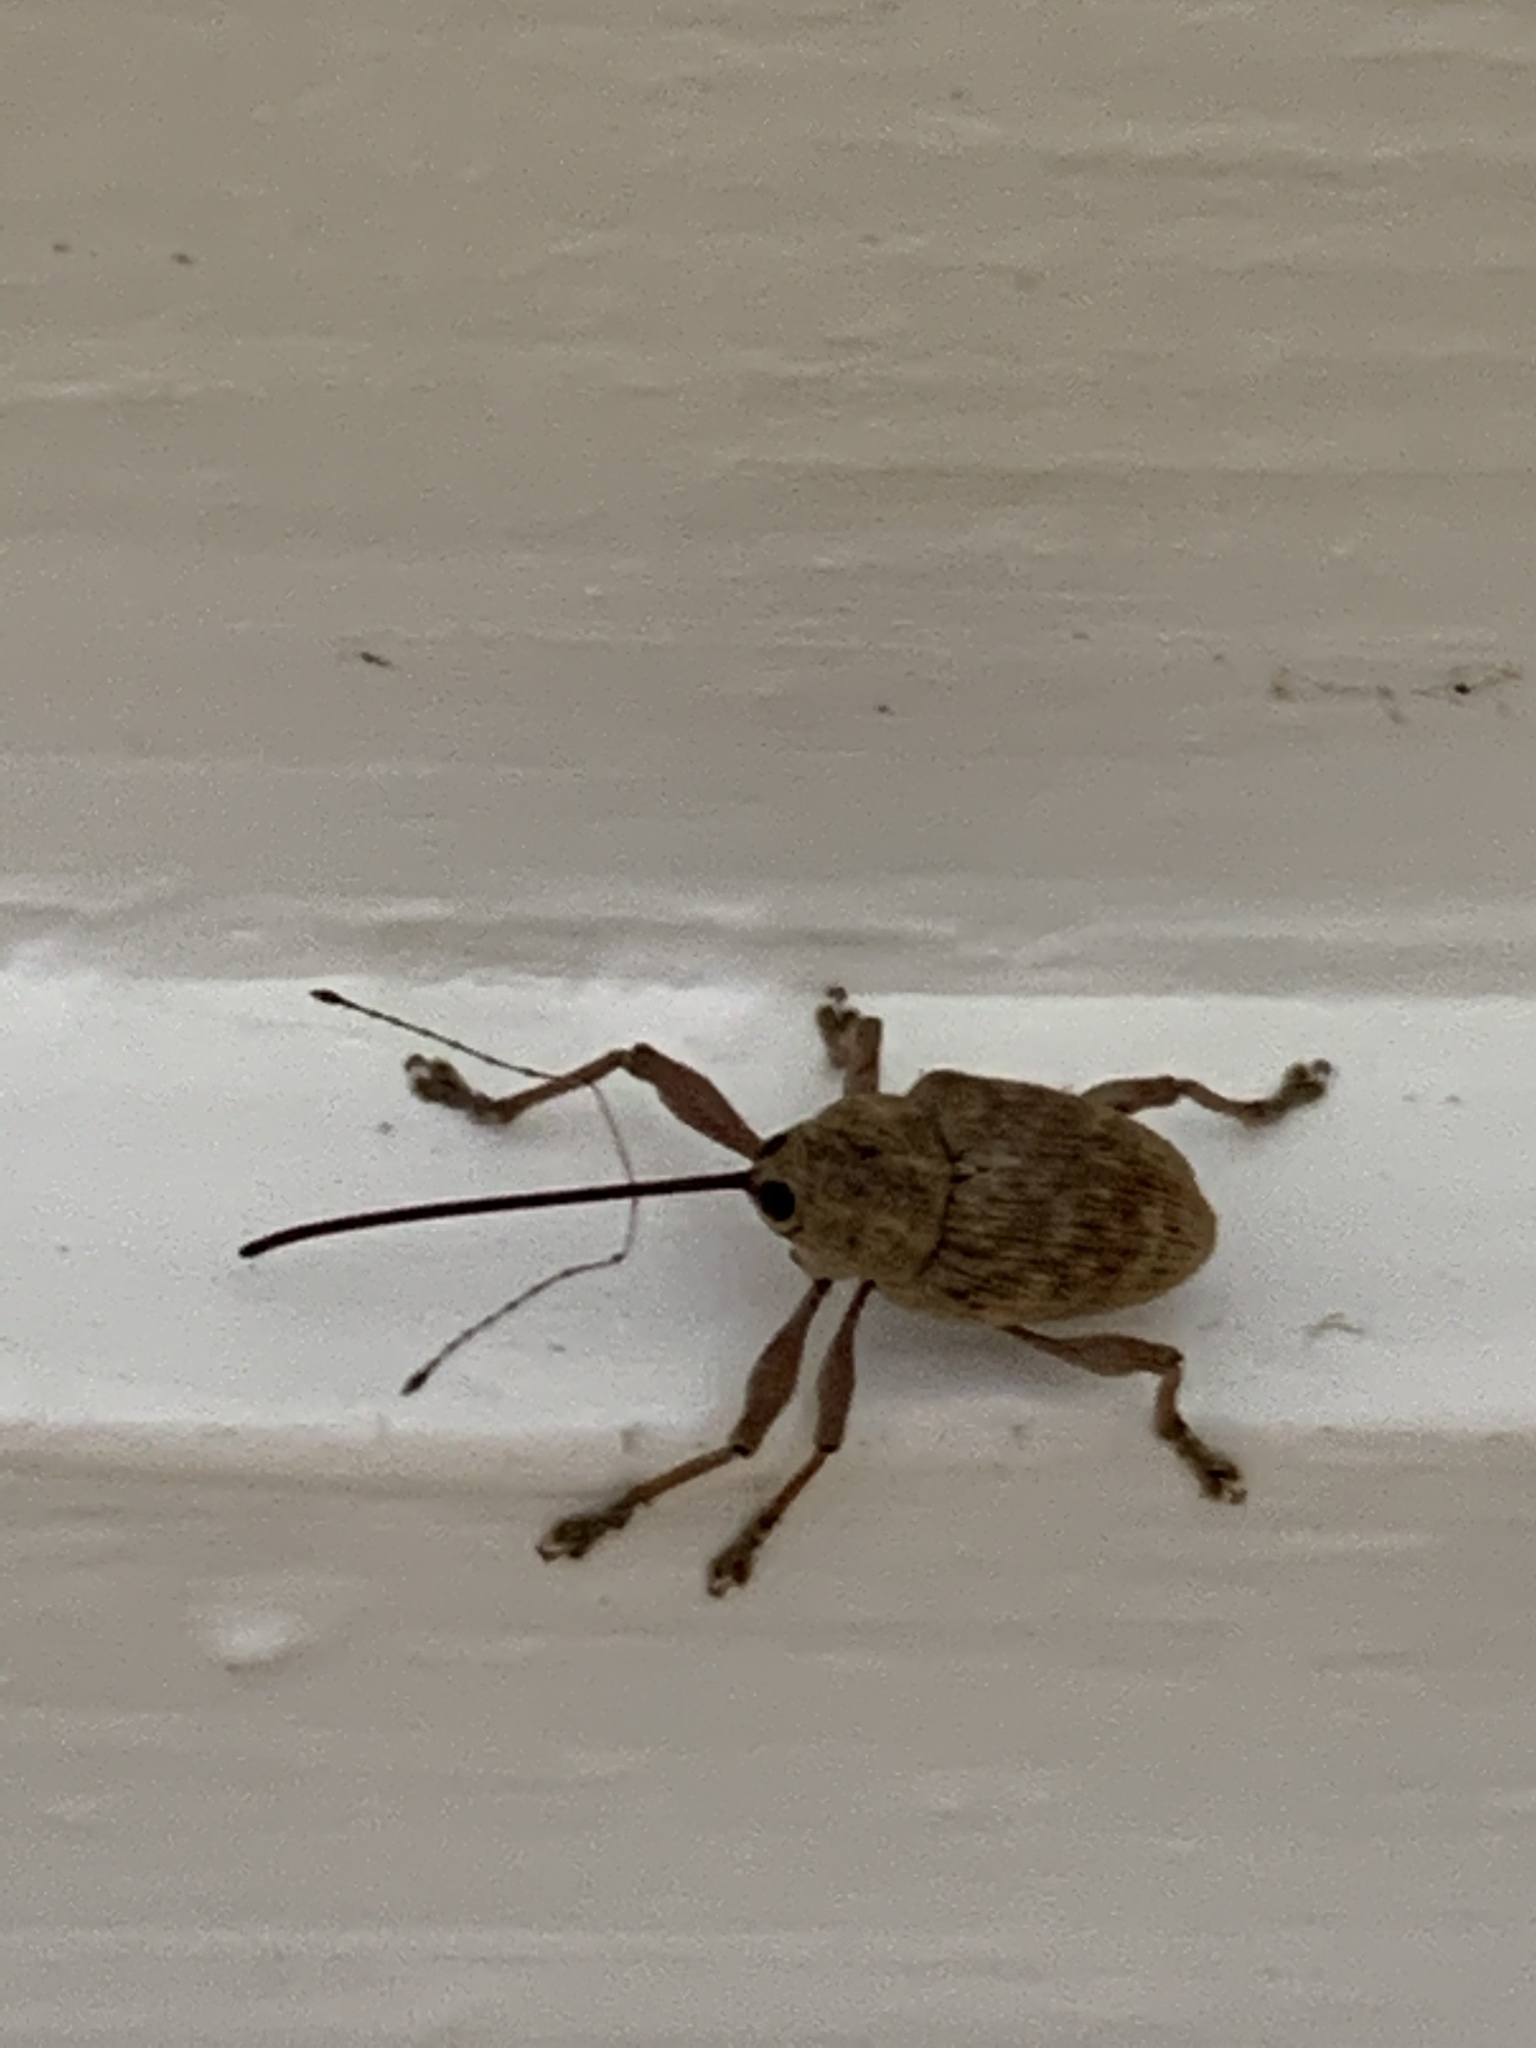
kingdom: Animalia
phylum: Arthropoda
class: Insecta
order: Coleoptera
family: Curculionidae
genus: Curculio
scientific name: Curculio proboscideus
